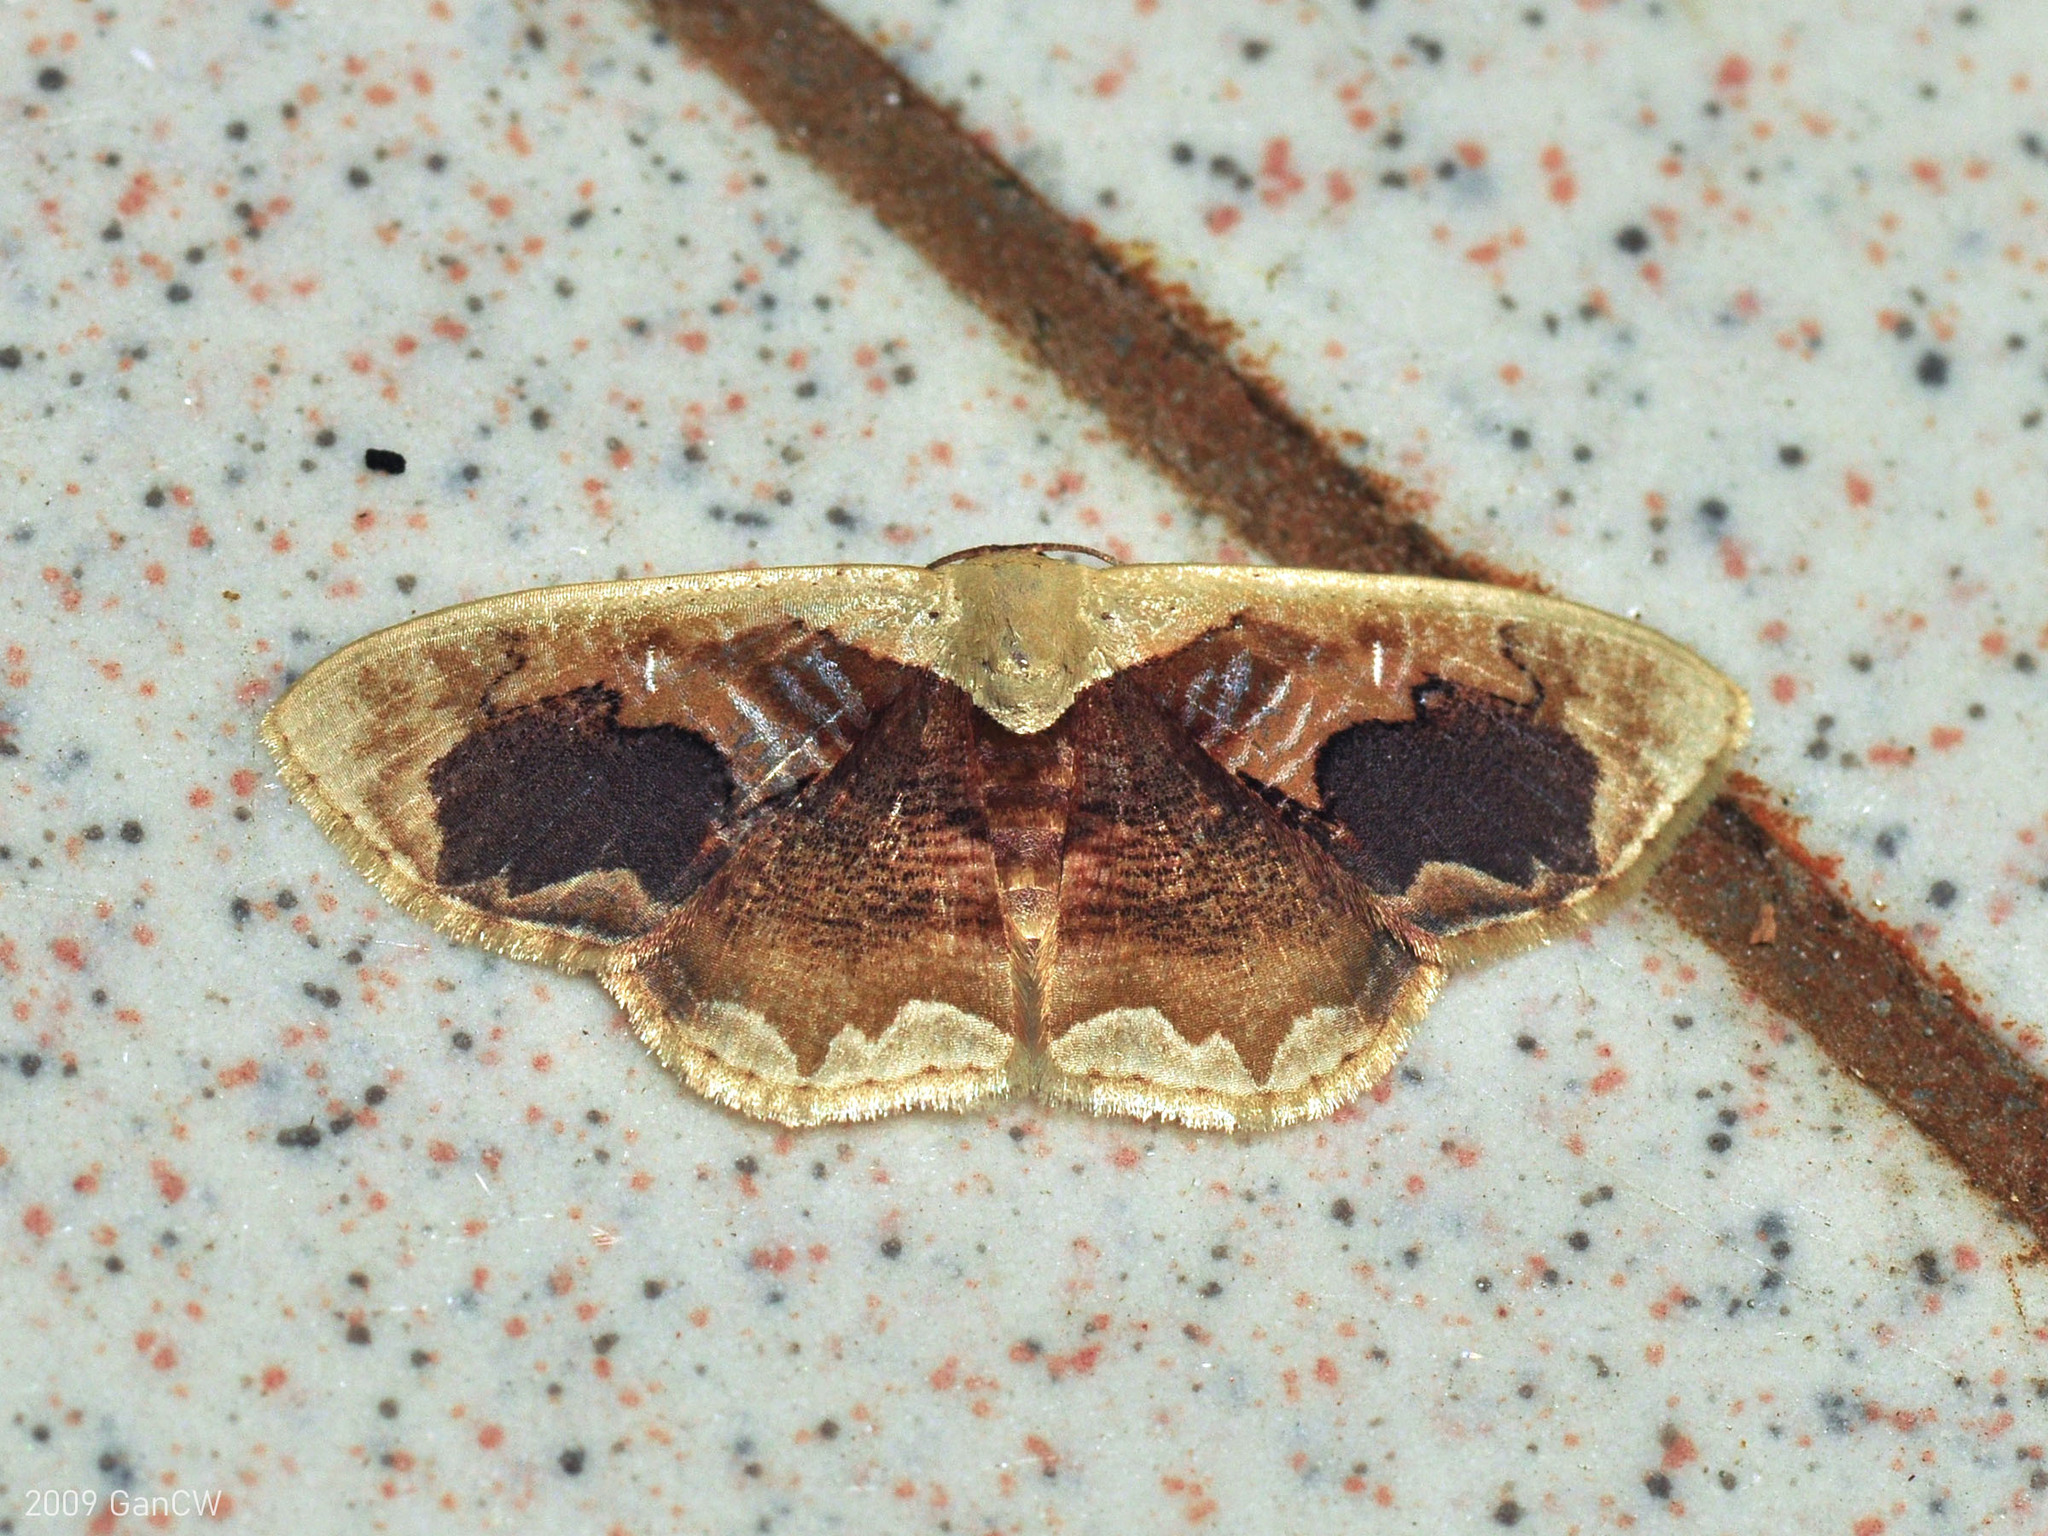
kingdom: Animalia
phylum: Arthropoda
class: Insecta
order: Lepidoptera
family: Geometridae
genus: Lipomelia
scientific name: Lipomelia subusta
